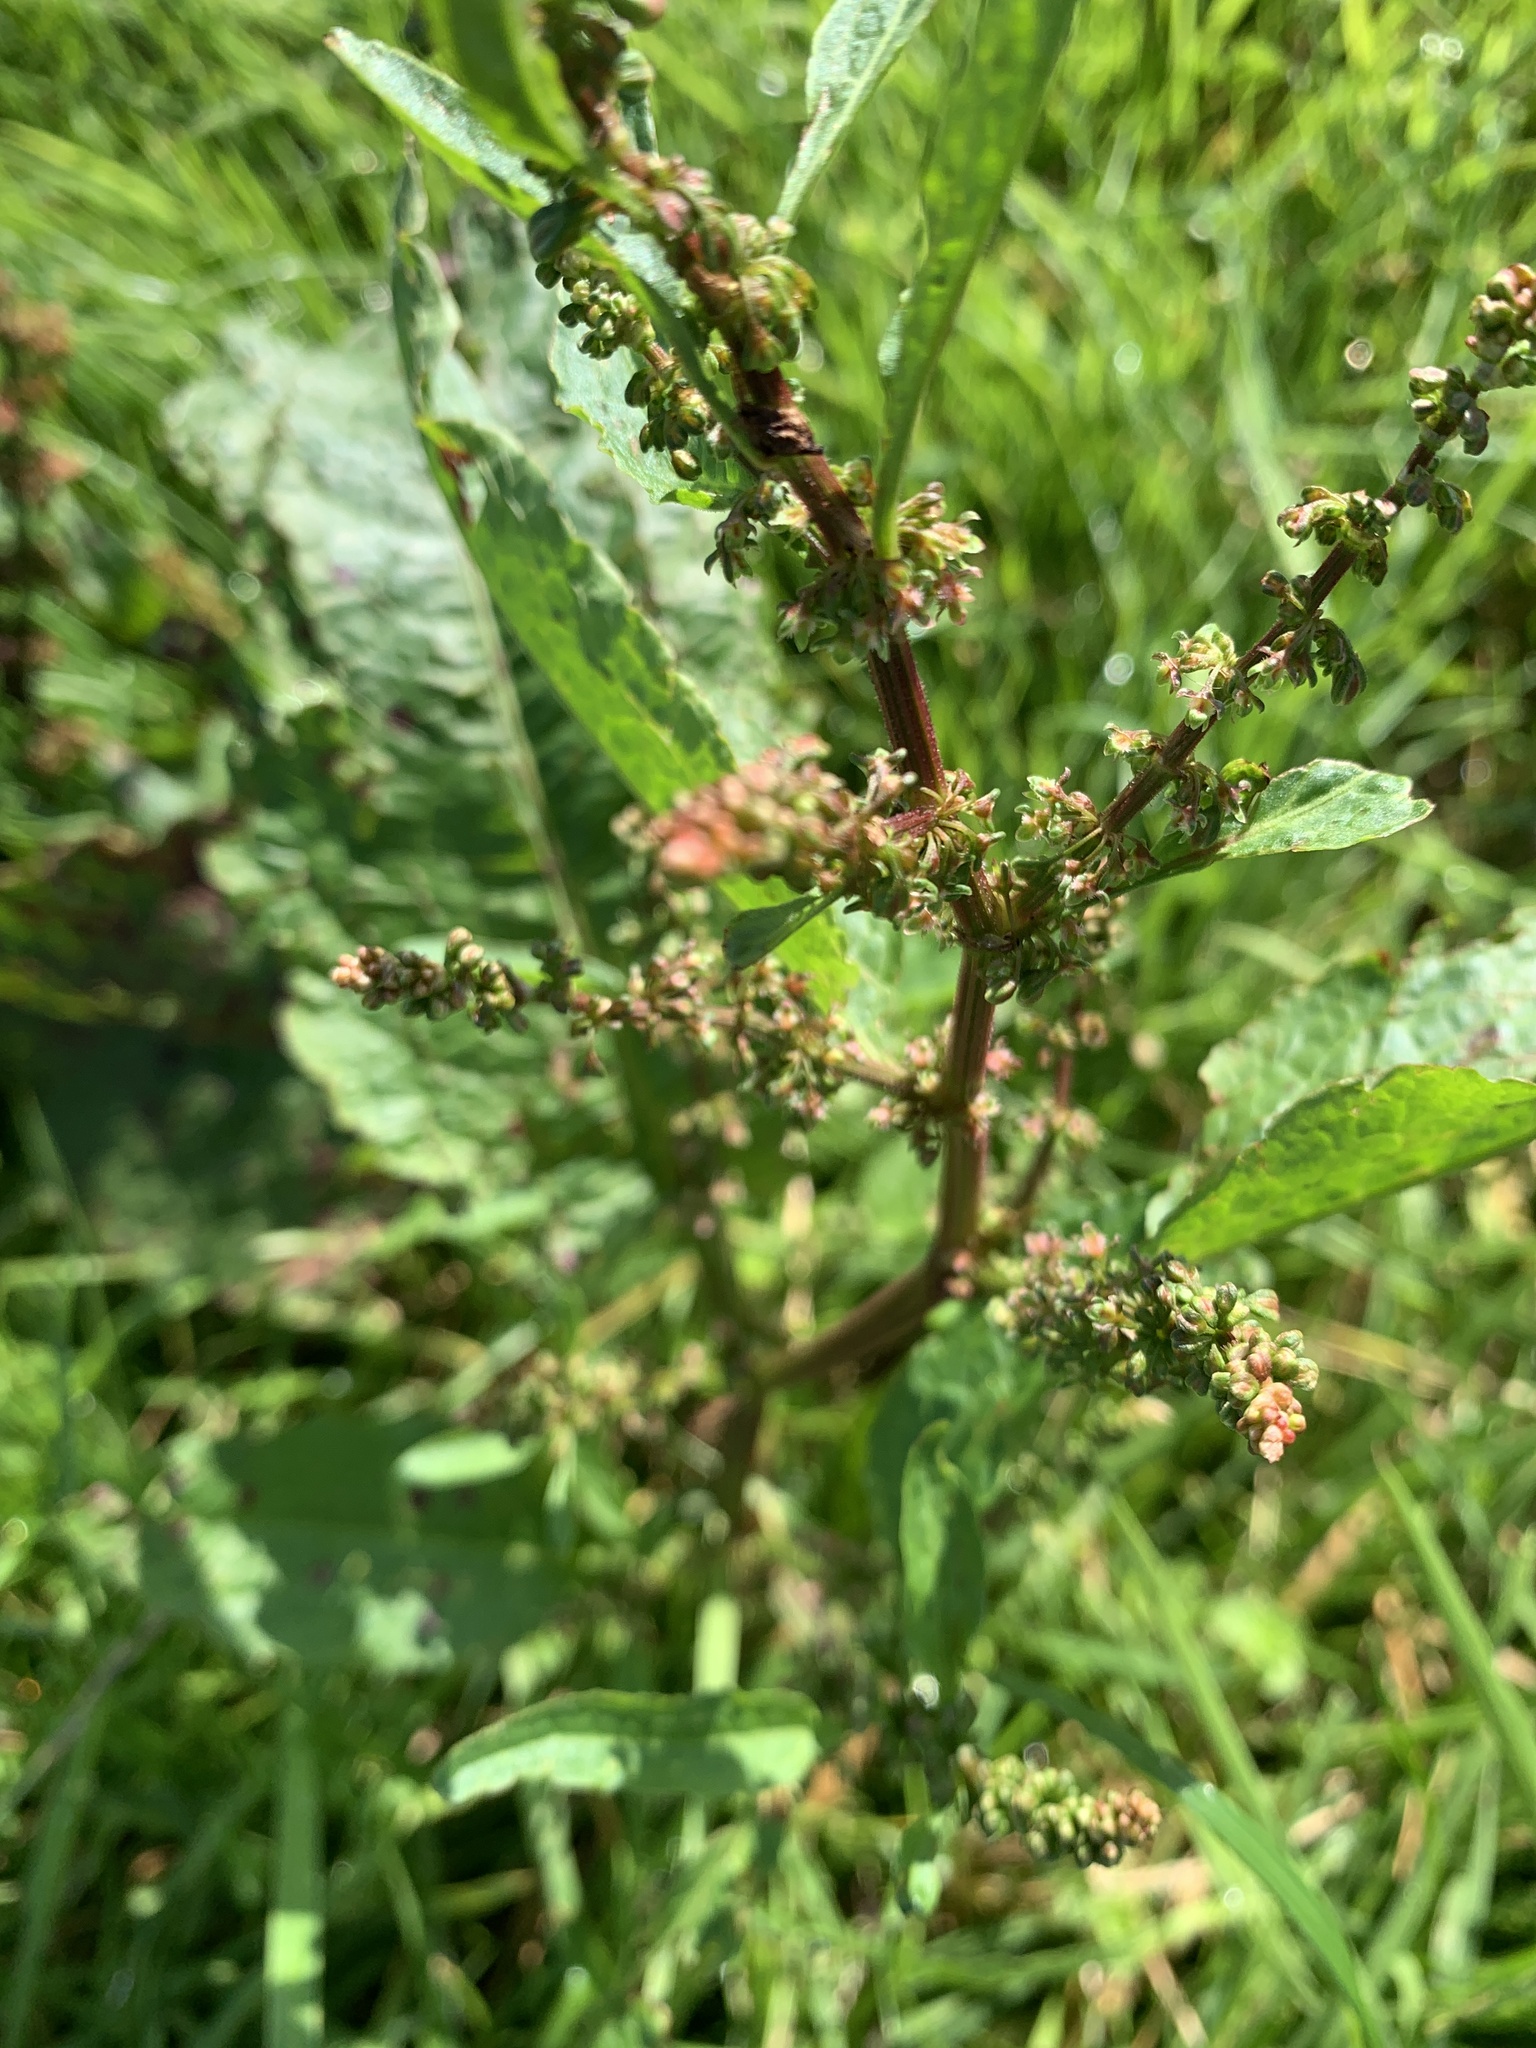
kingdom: Plantae
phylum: Tracheophyta
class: Magnoliopsida
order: Caryophyllales
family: Polygonaceae
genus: Rumex
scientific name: Rumex obtusifolius
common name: Bitter dock
